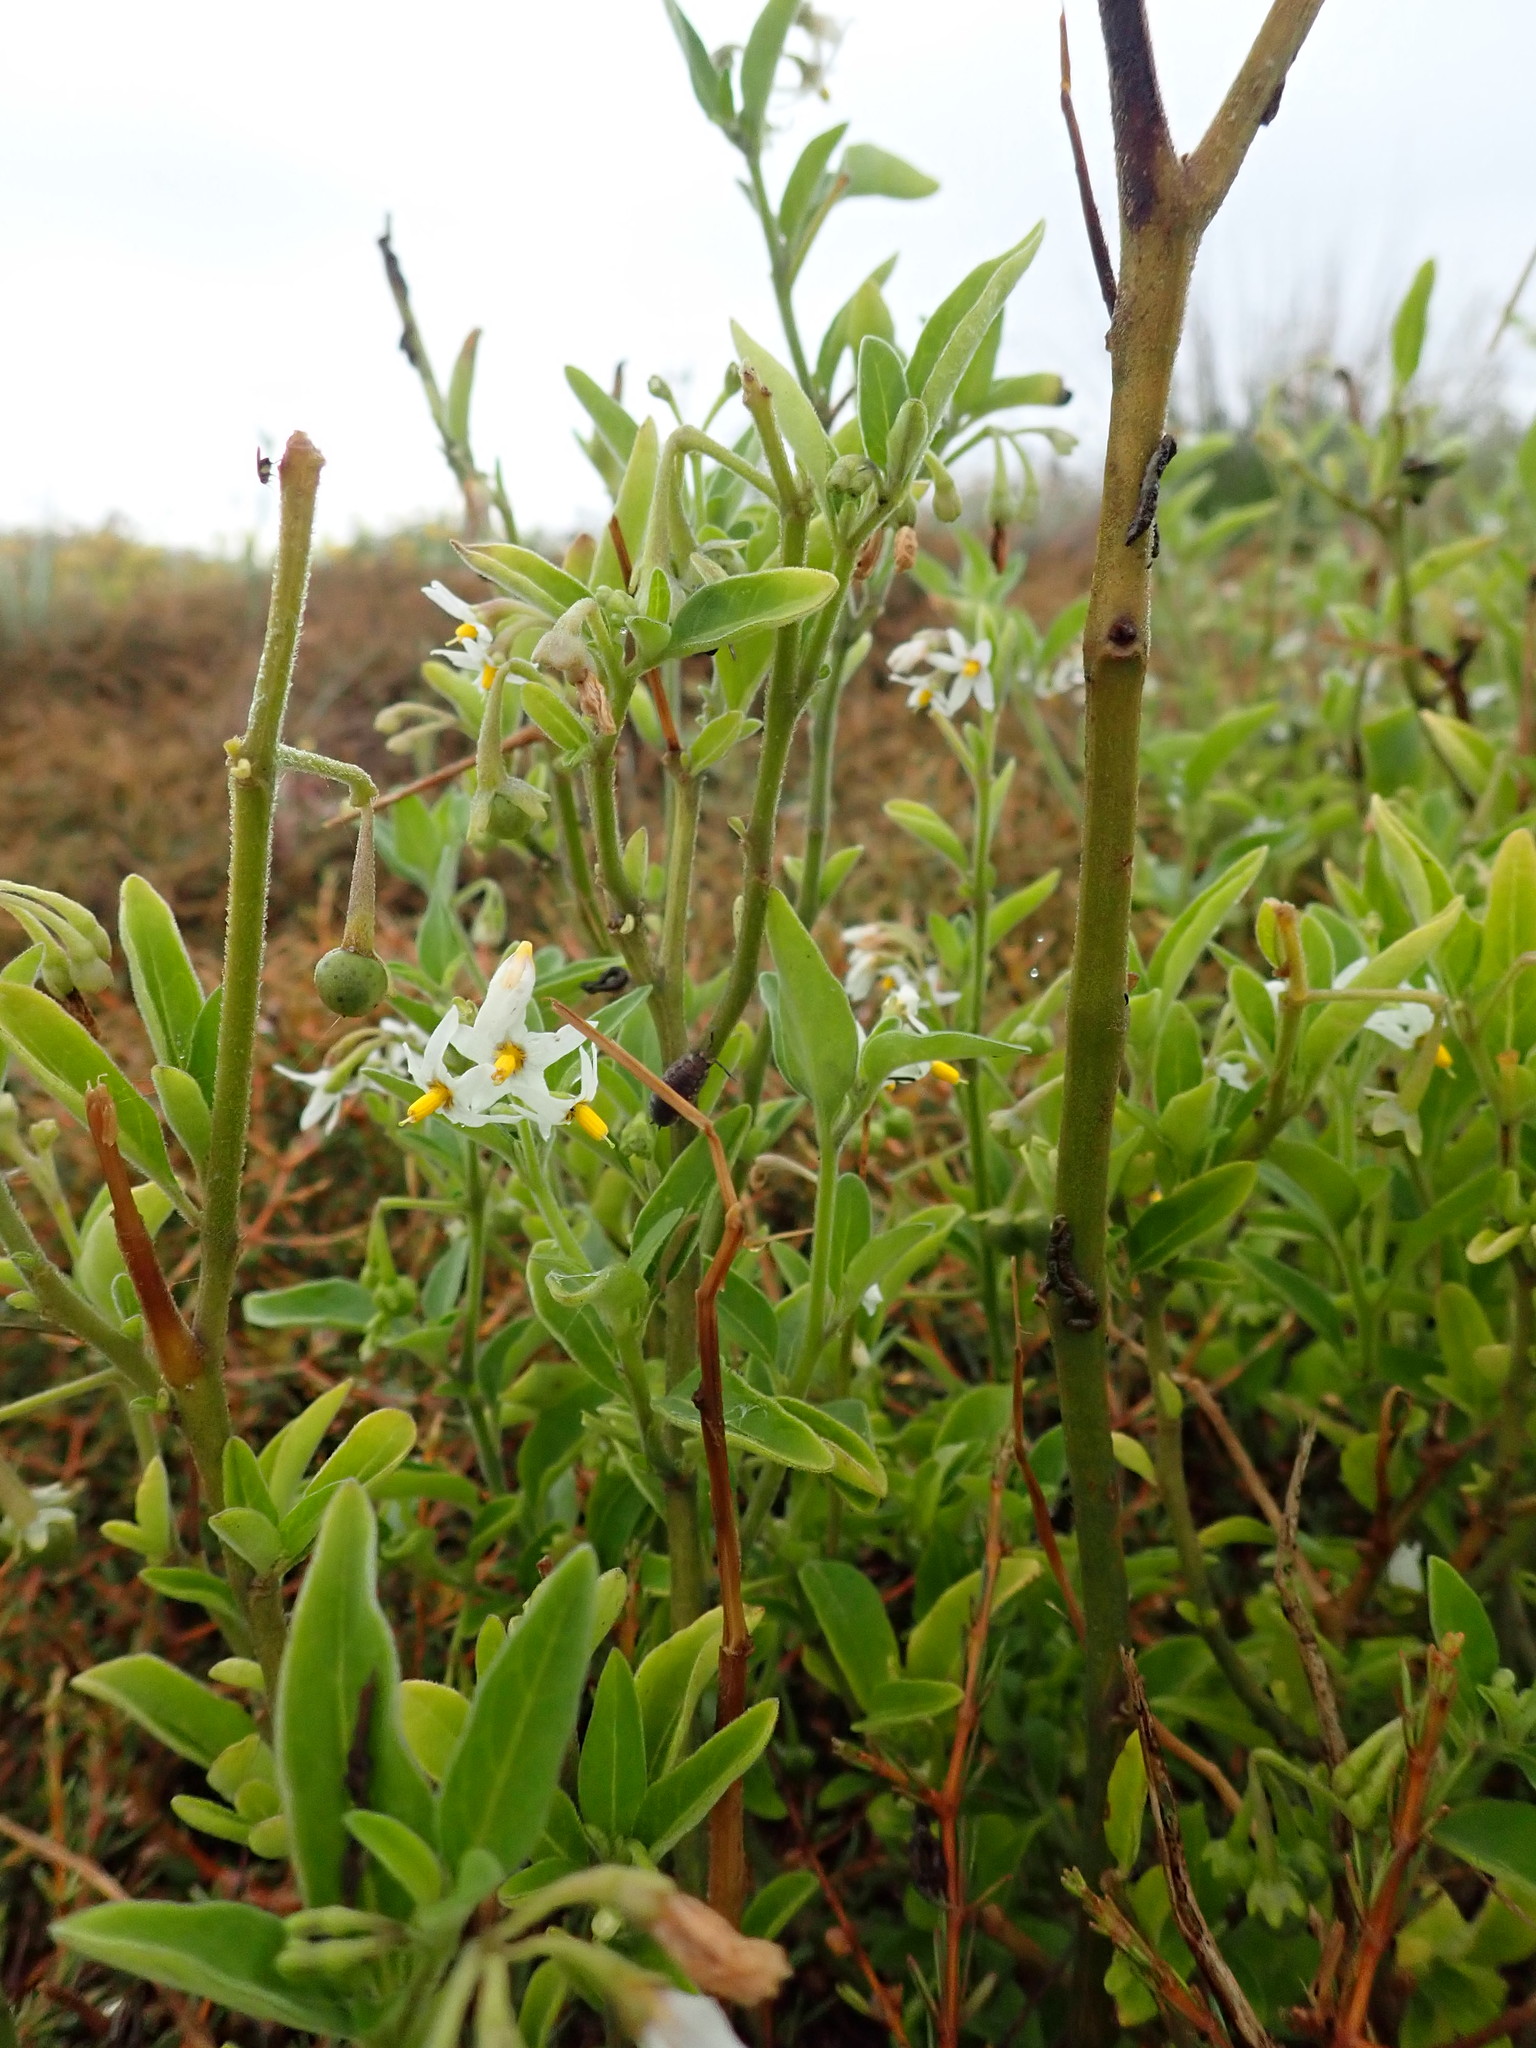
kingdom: Plantae
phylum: Tracheophyta
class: Magnoliopsida
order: Solanales
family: Solanaceae
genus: Solanum
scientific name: Solanum chenopodioides
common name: Tall nightshade
